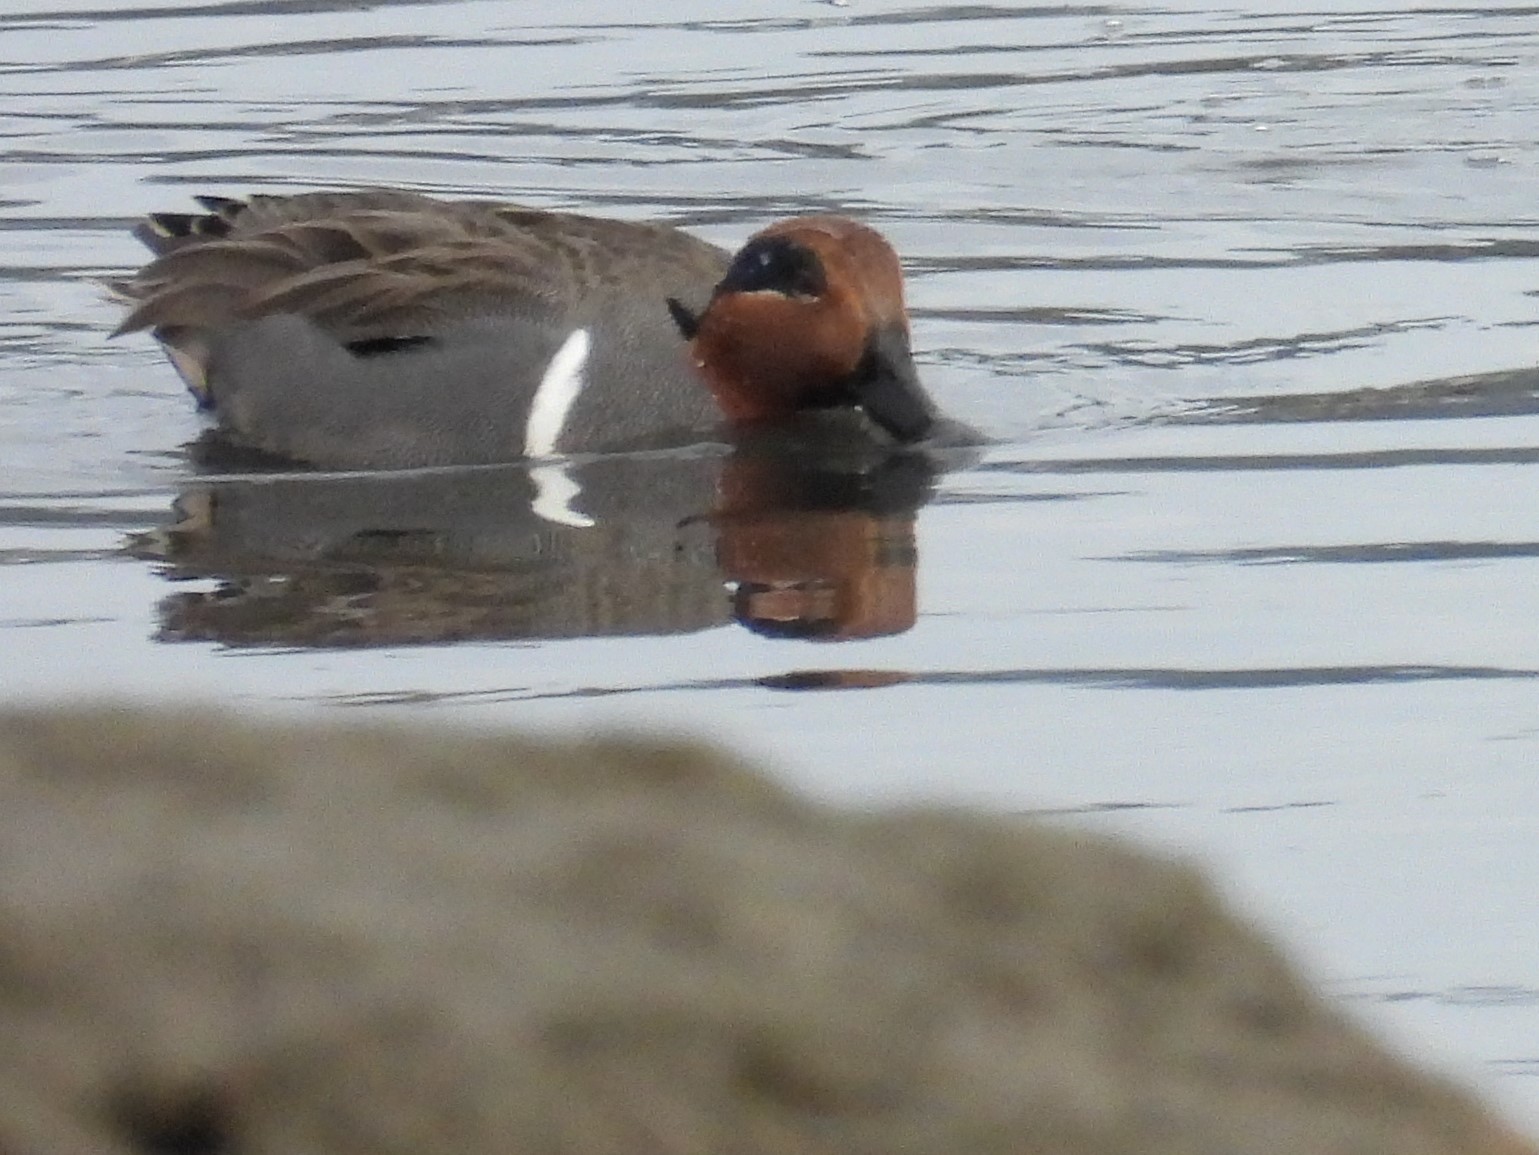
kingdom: Animalia
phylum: Chordata
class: Aves
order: Anseriformes
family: Anatidae
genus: Anas
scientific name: Anas crecca
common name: Eurasian teal
